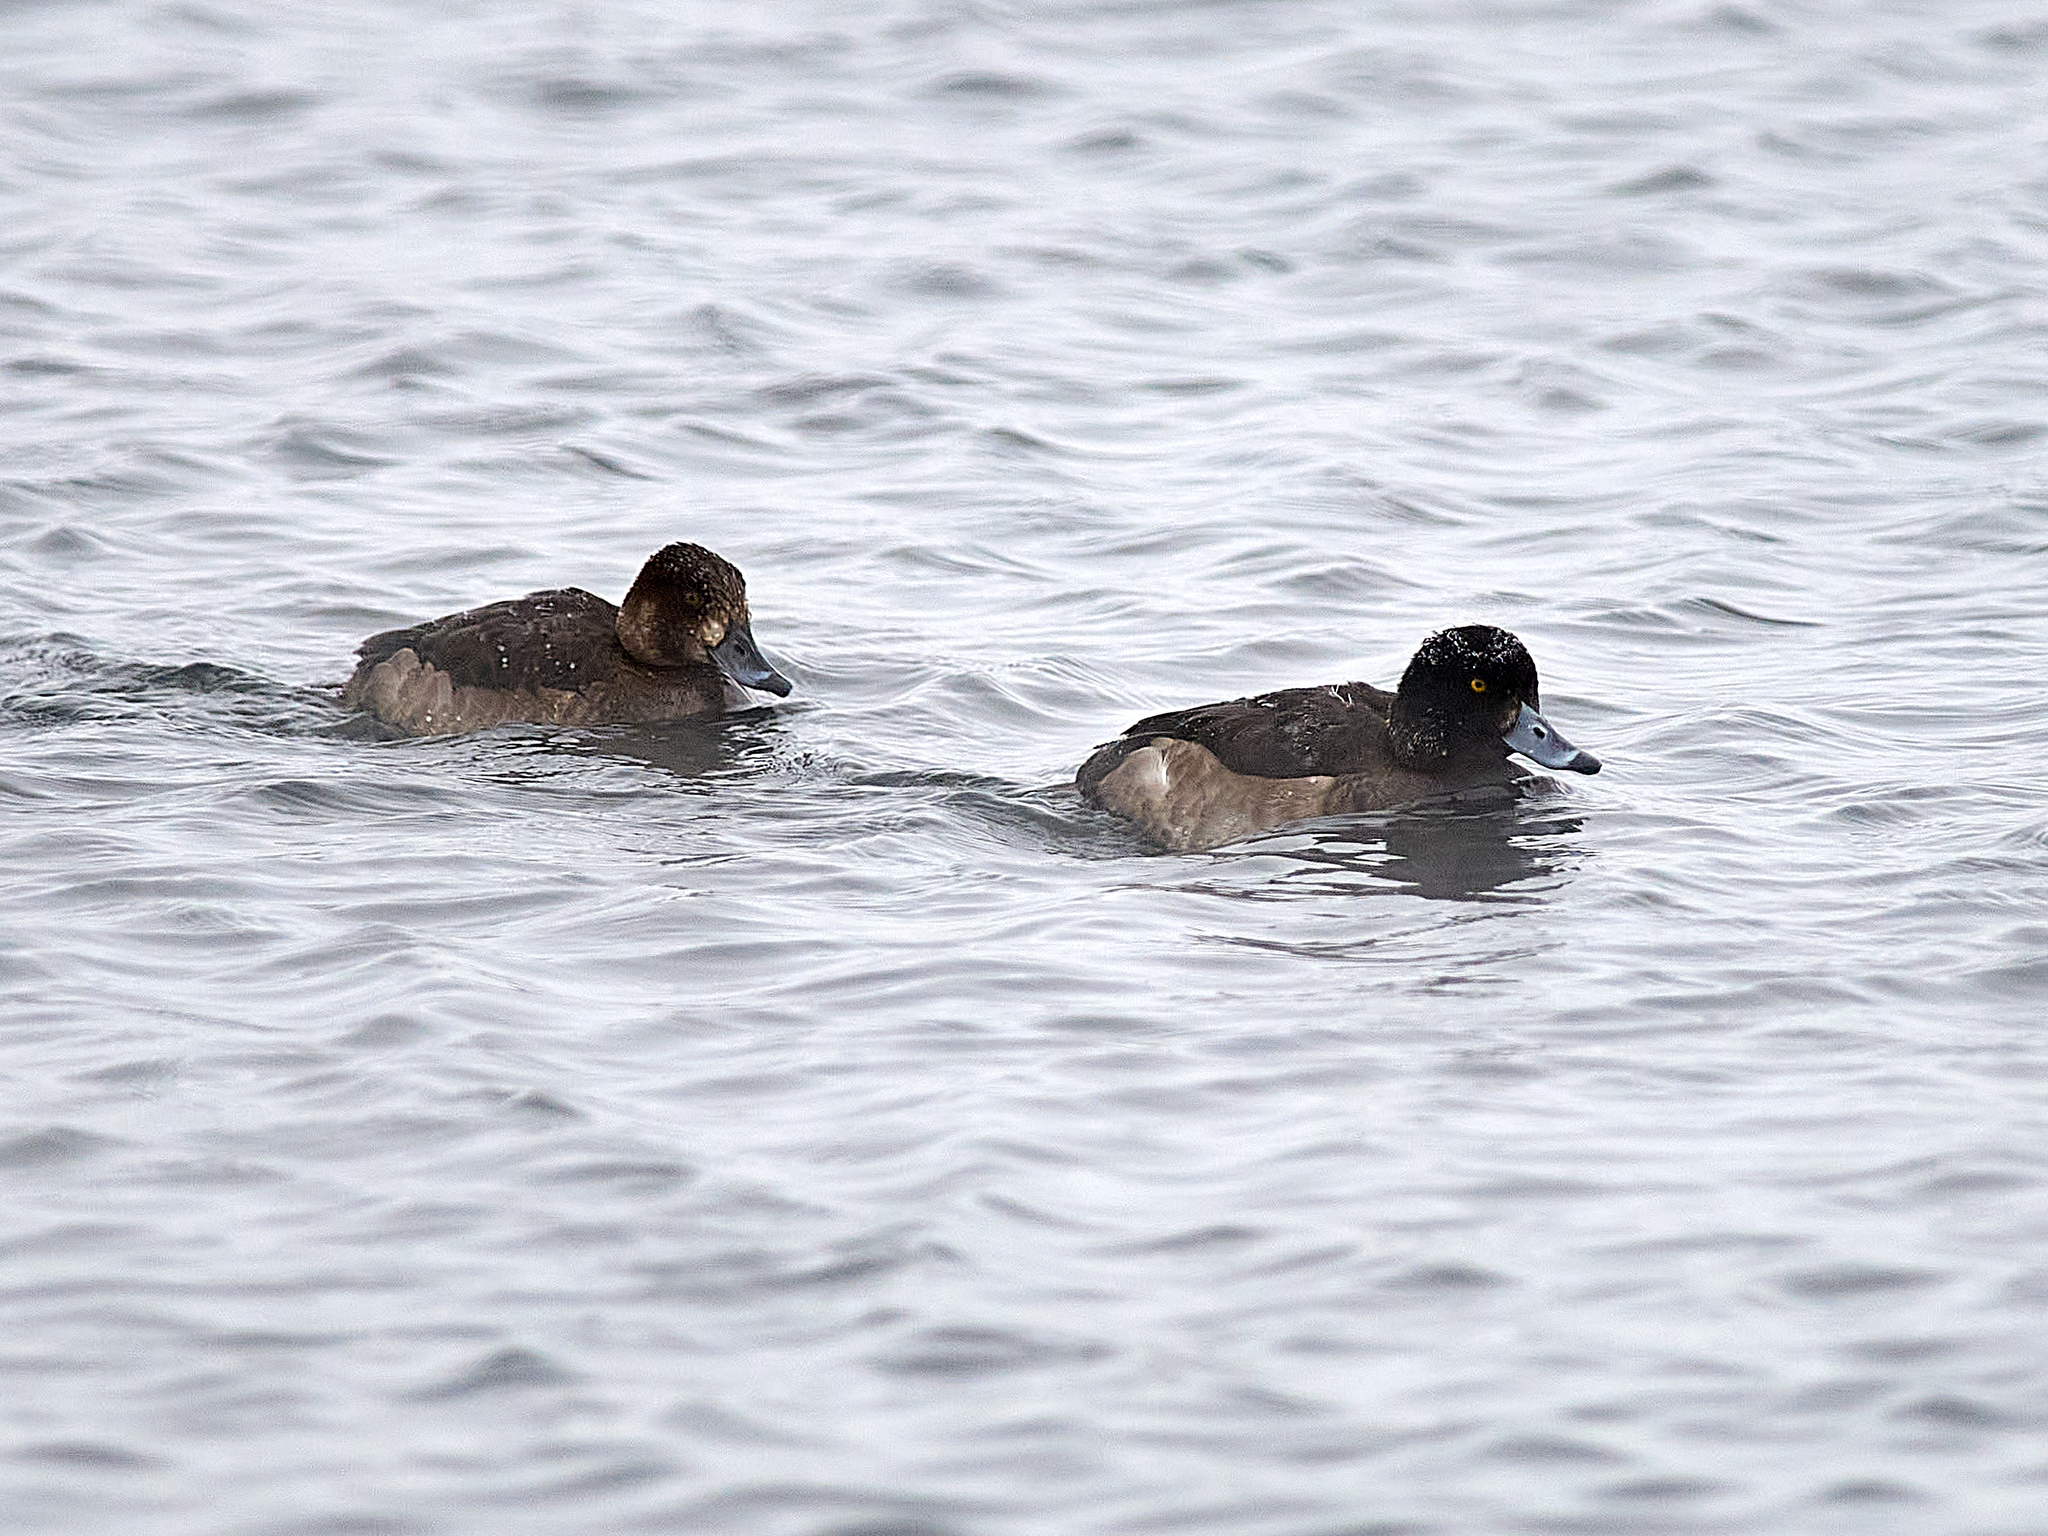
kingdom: Animalia
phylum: Chordata
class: Aves
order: Anseriformes
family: Anatidae
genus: Aythya
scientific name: Aythya fuligula
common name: Tufted duck
